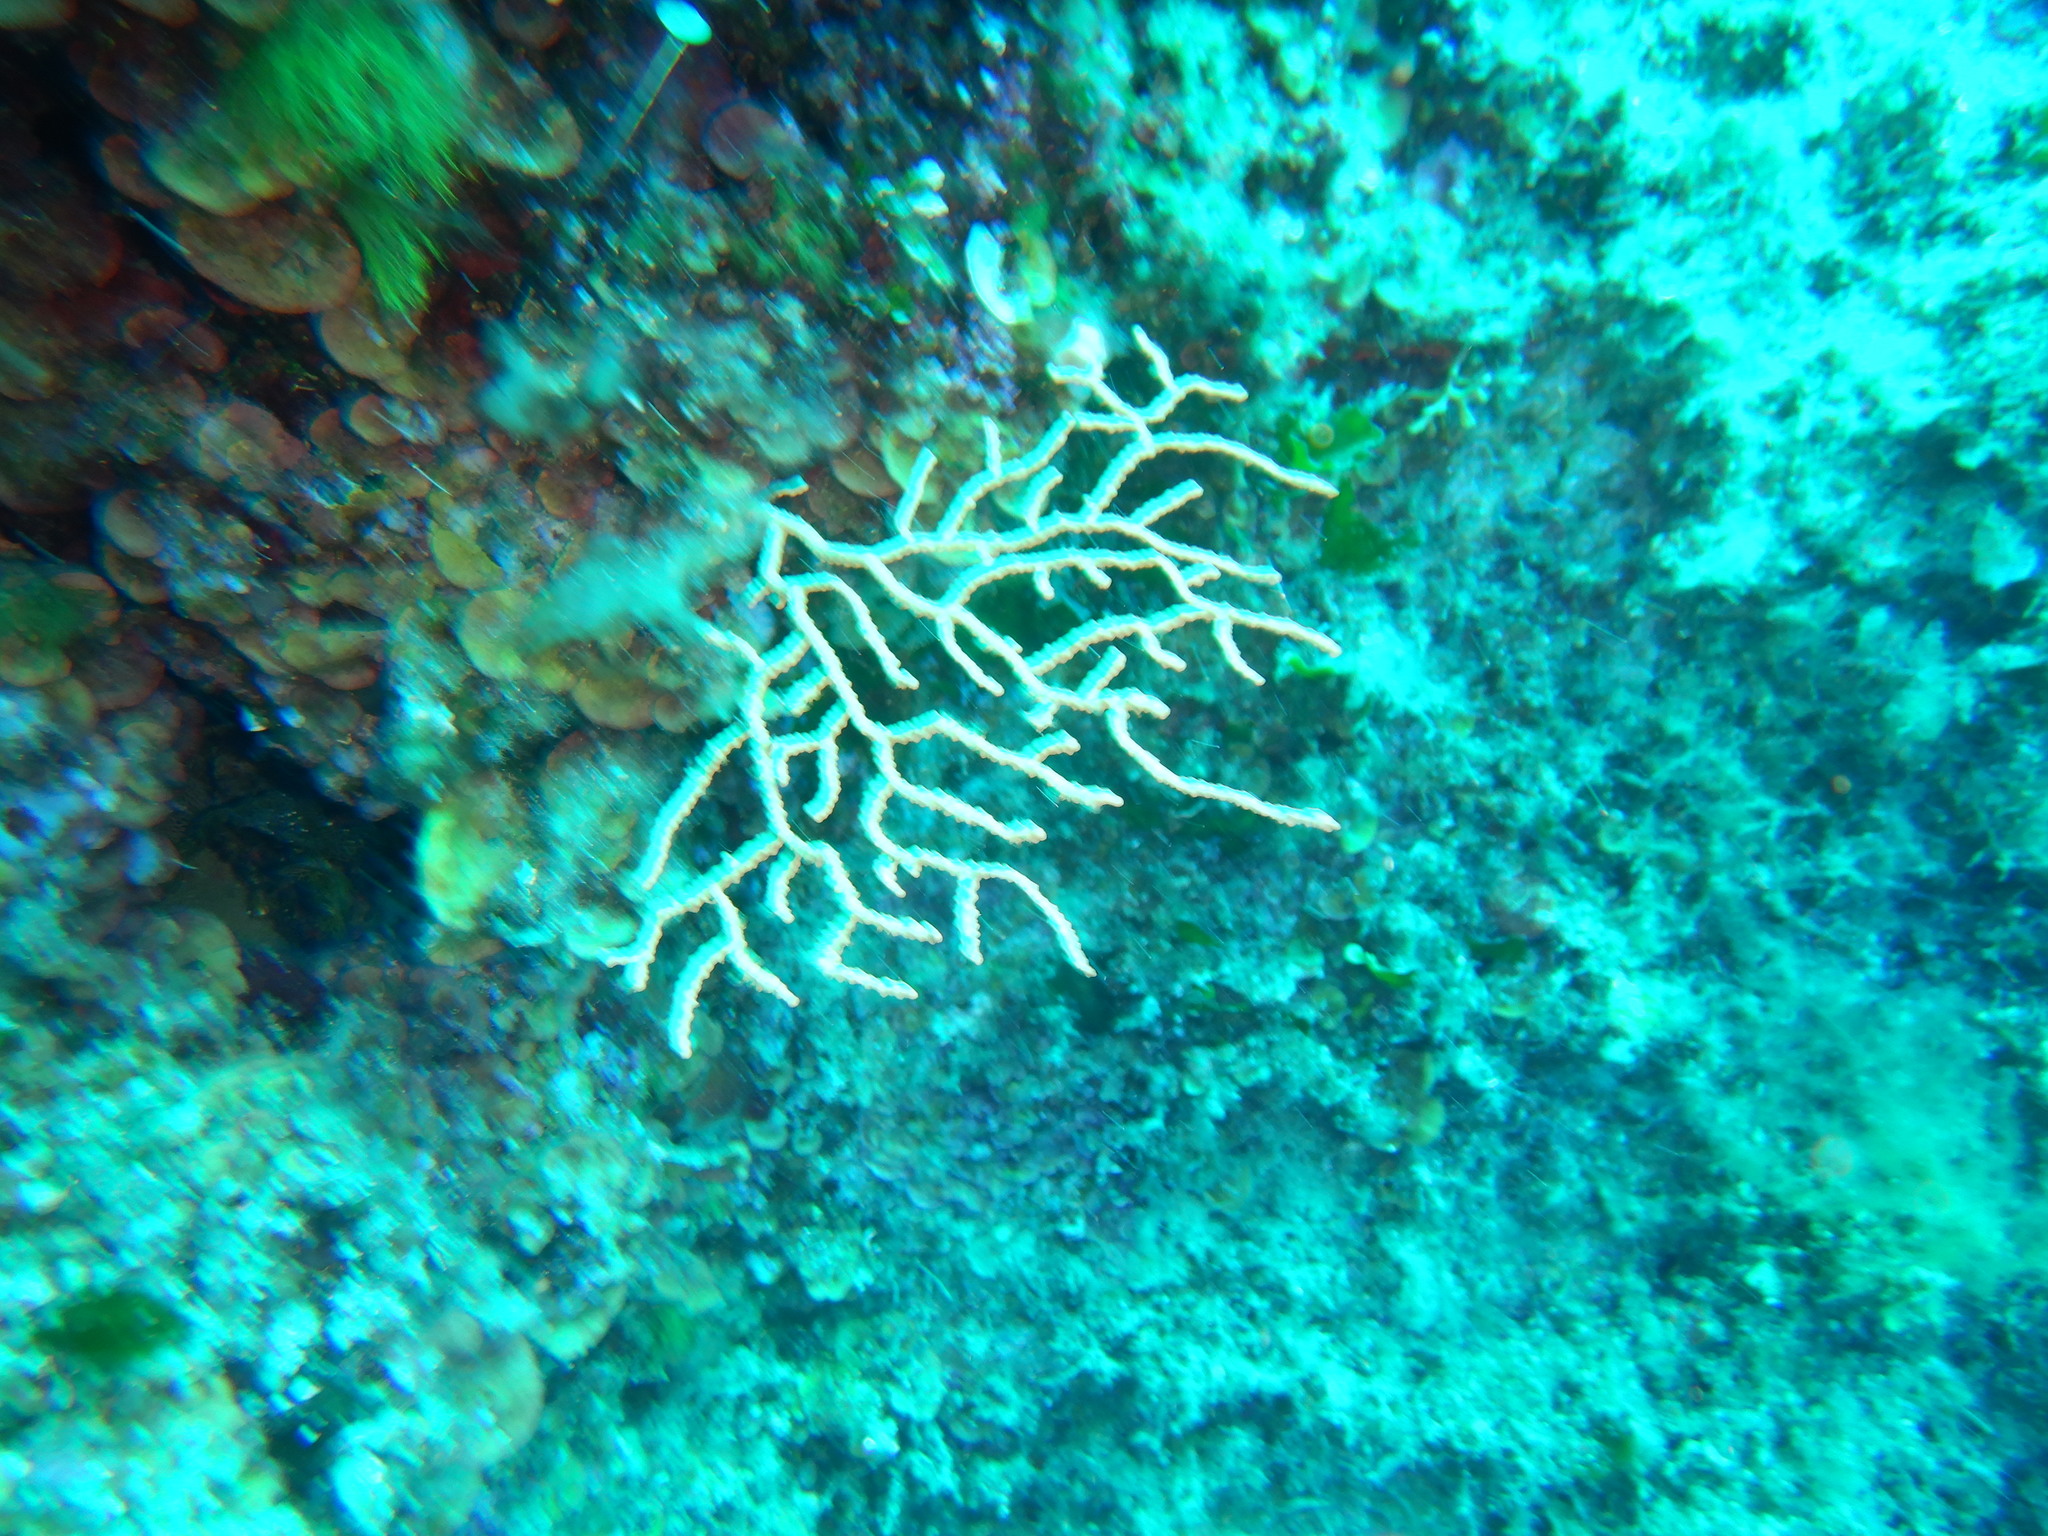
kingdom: Animalia
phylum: Cnidaria
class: Anthozoa
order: Malacalcyonacea
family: Eunicellidae
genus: Eunicella
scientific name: Eunicella cavolini
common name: Yellow gorgonian
